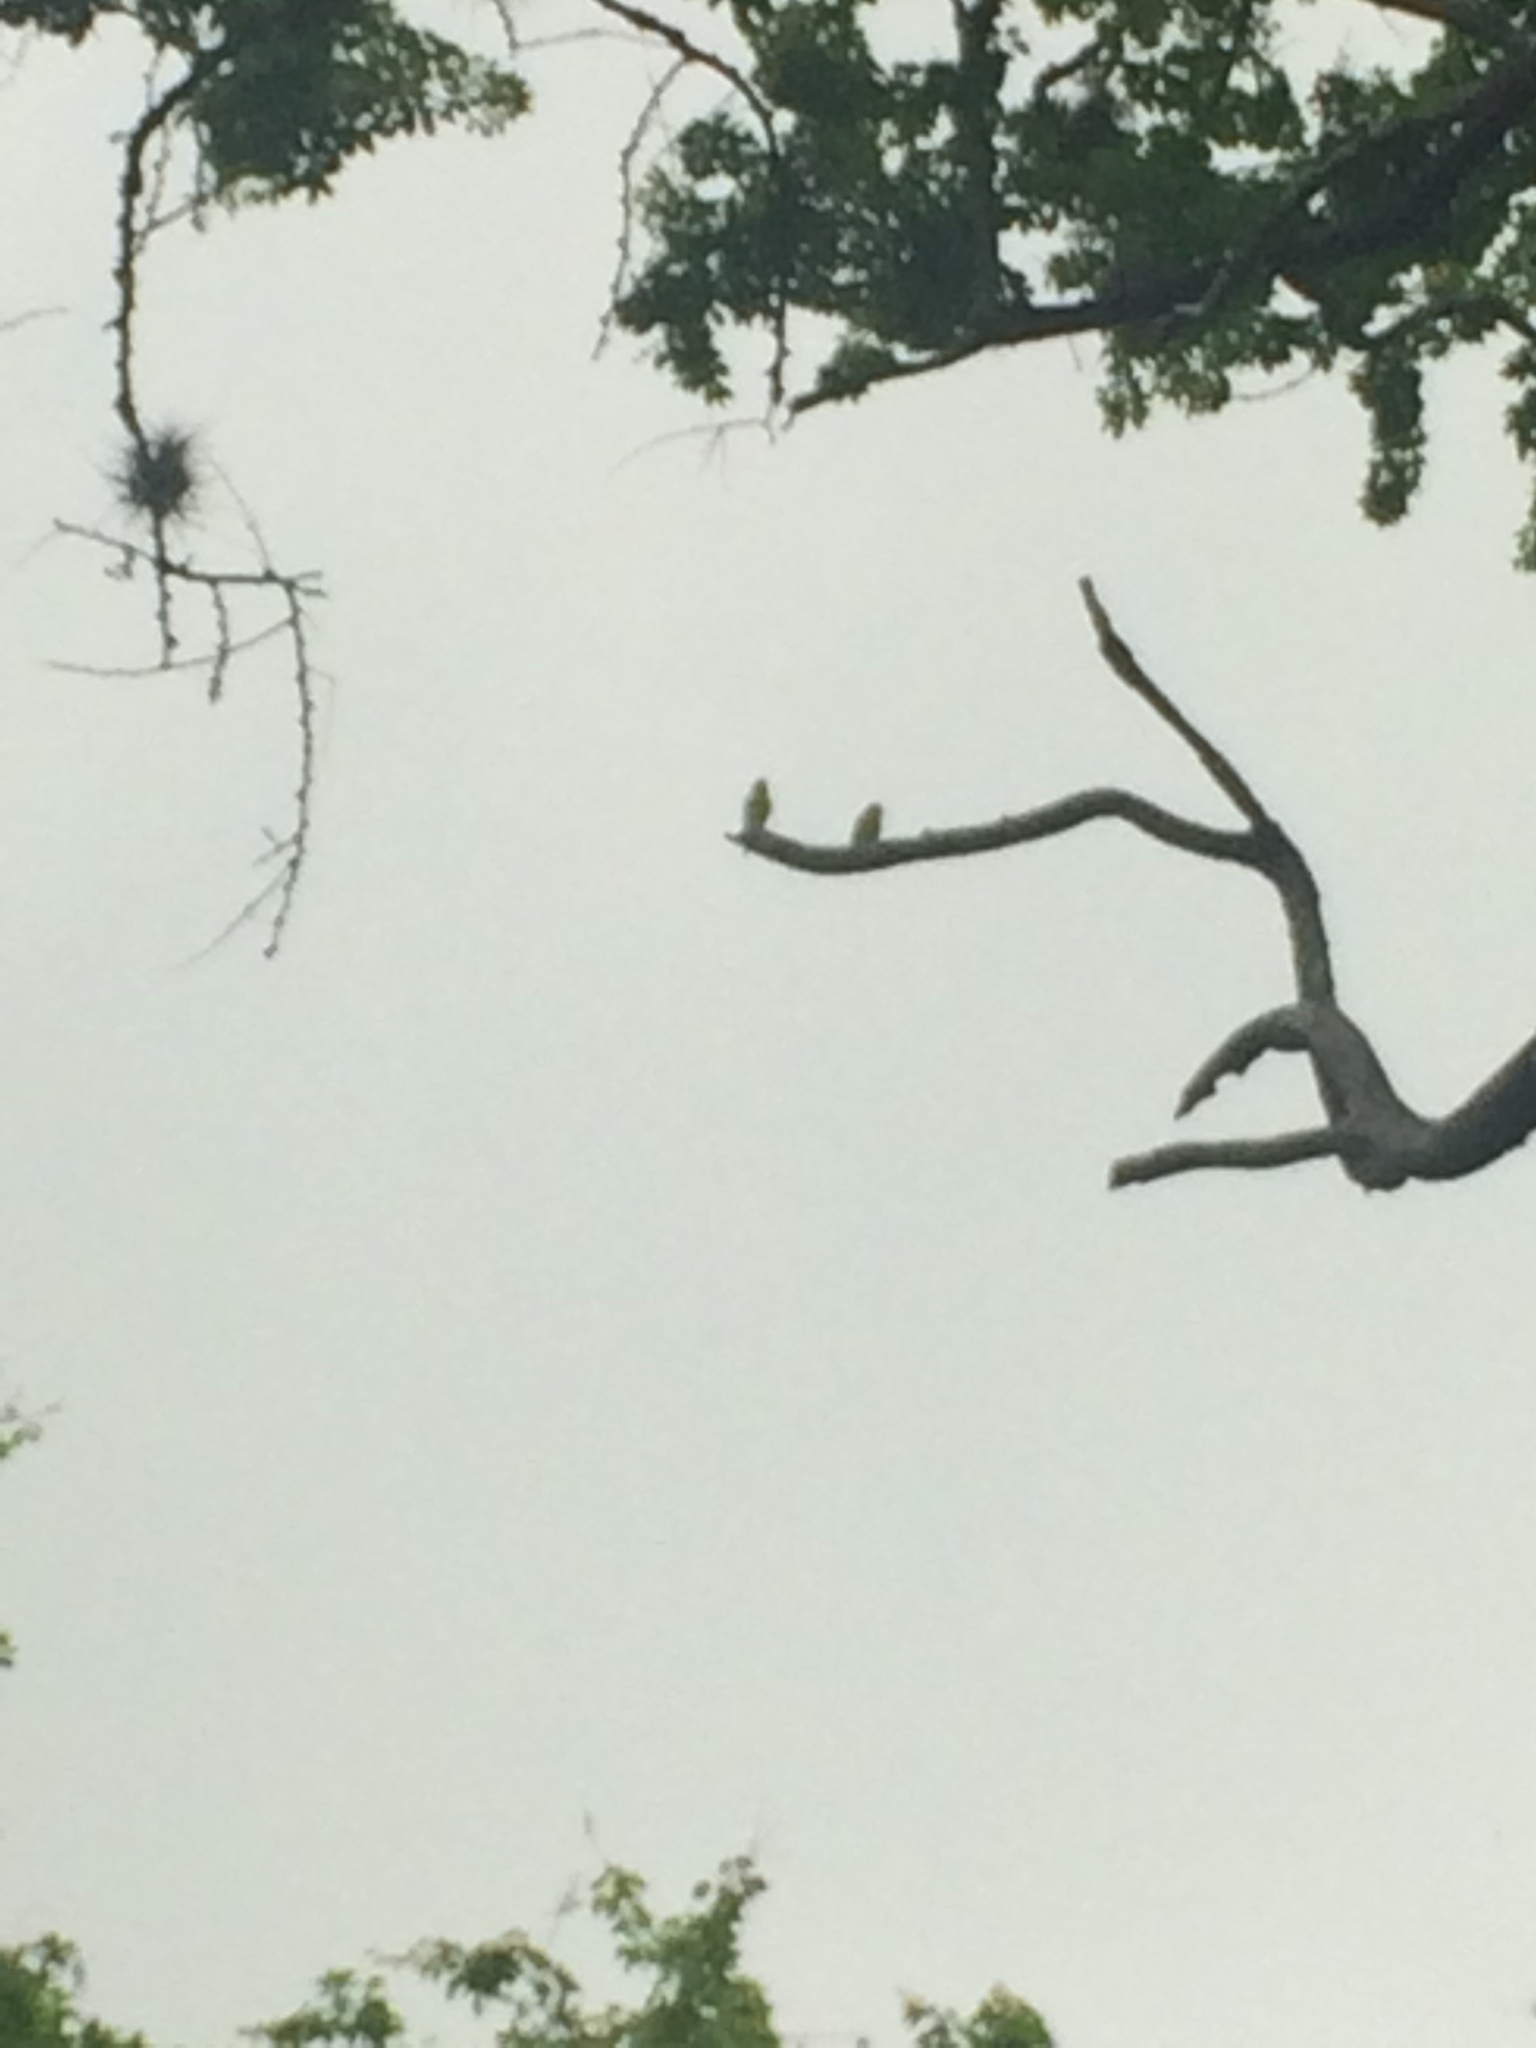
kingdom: Animalia
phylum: Chordata
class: Aves
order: Psittaciformes
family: Psittacidae
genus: Brotogeris
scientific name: Brotogeris jugularis
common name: Orange-chinned parakeet
